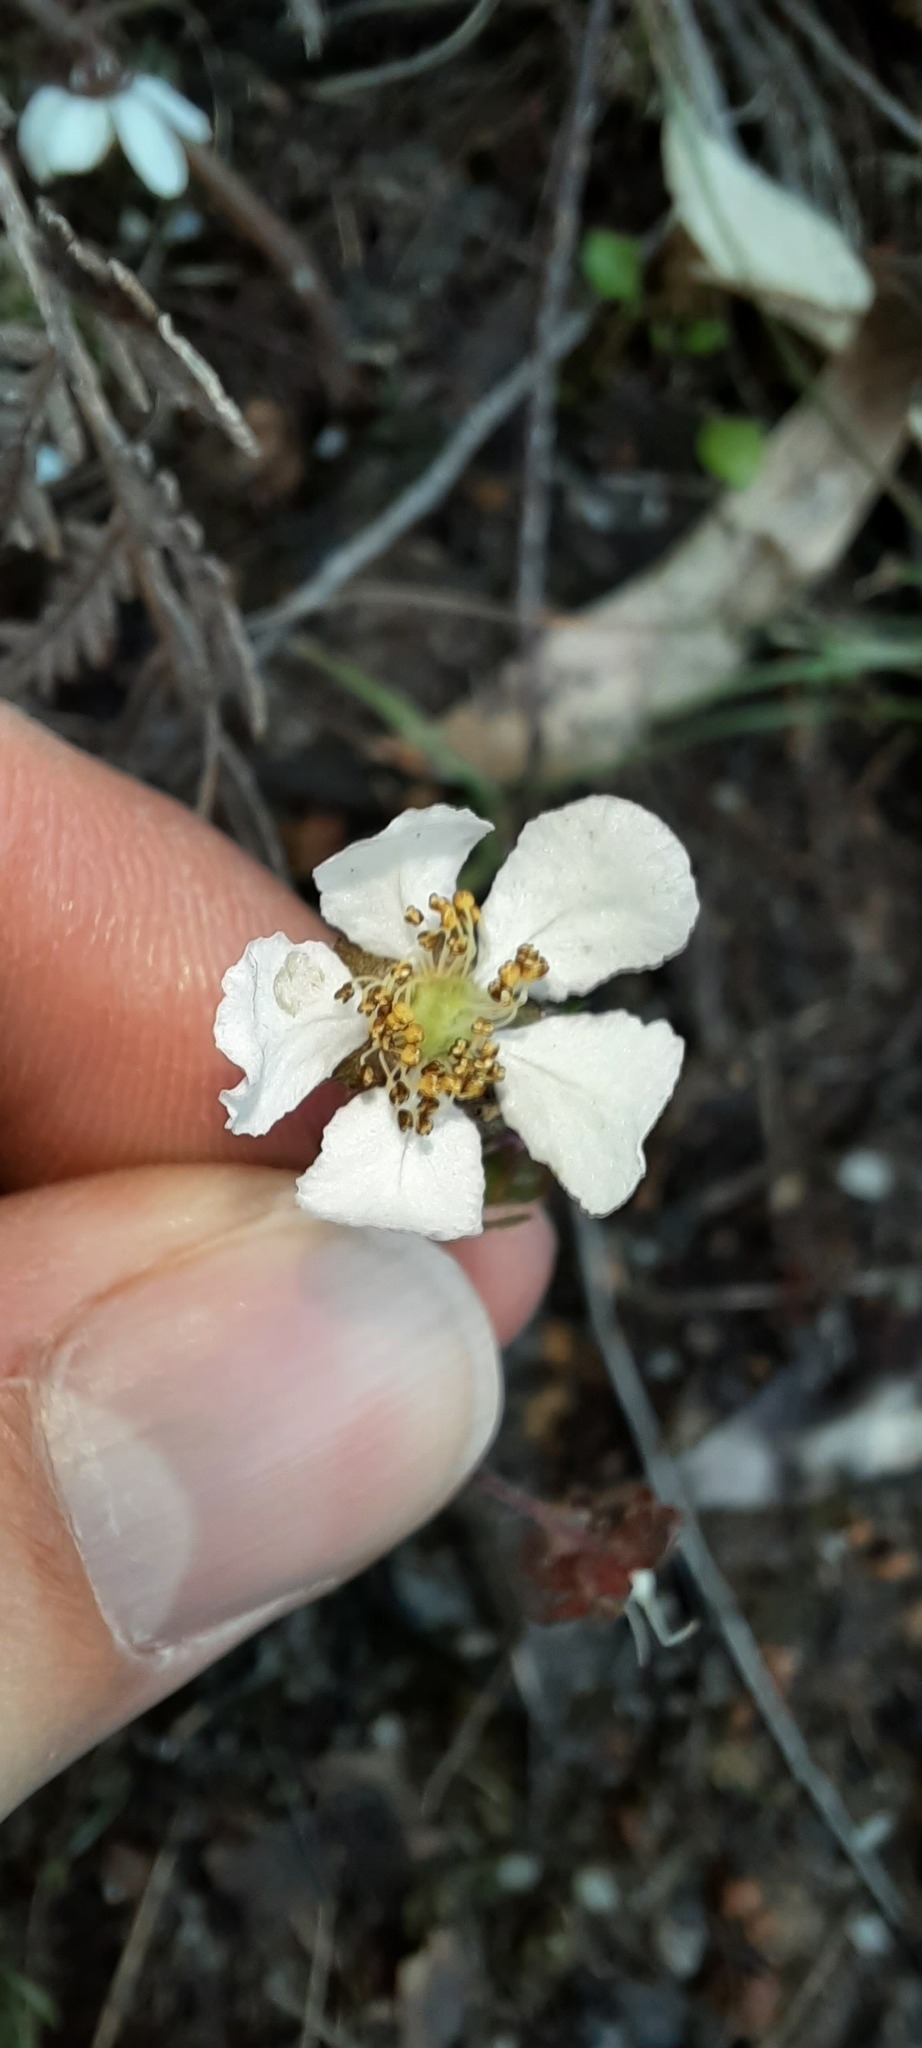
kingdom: Plantae
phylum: Tracheophyta
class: Magnoliopsida
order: Oxalidales
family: Cunoniaceae
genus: Bauera
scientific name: Bauera rubioides
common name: River-rose
